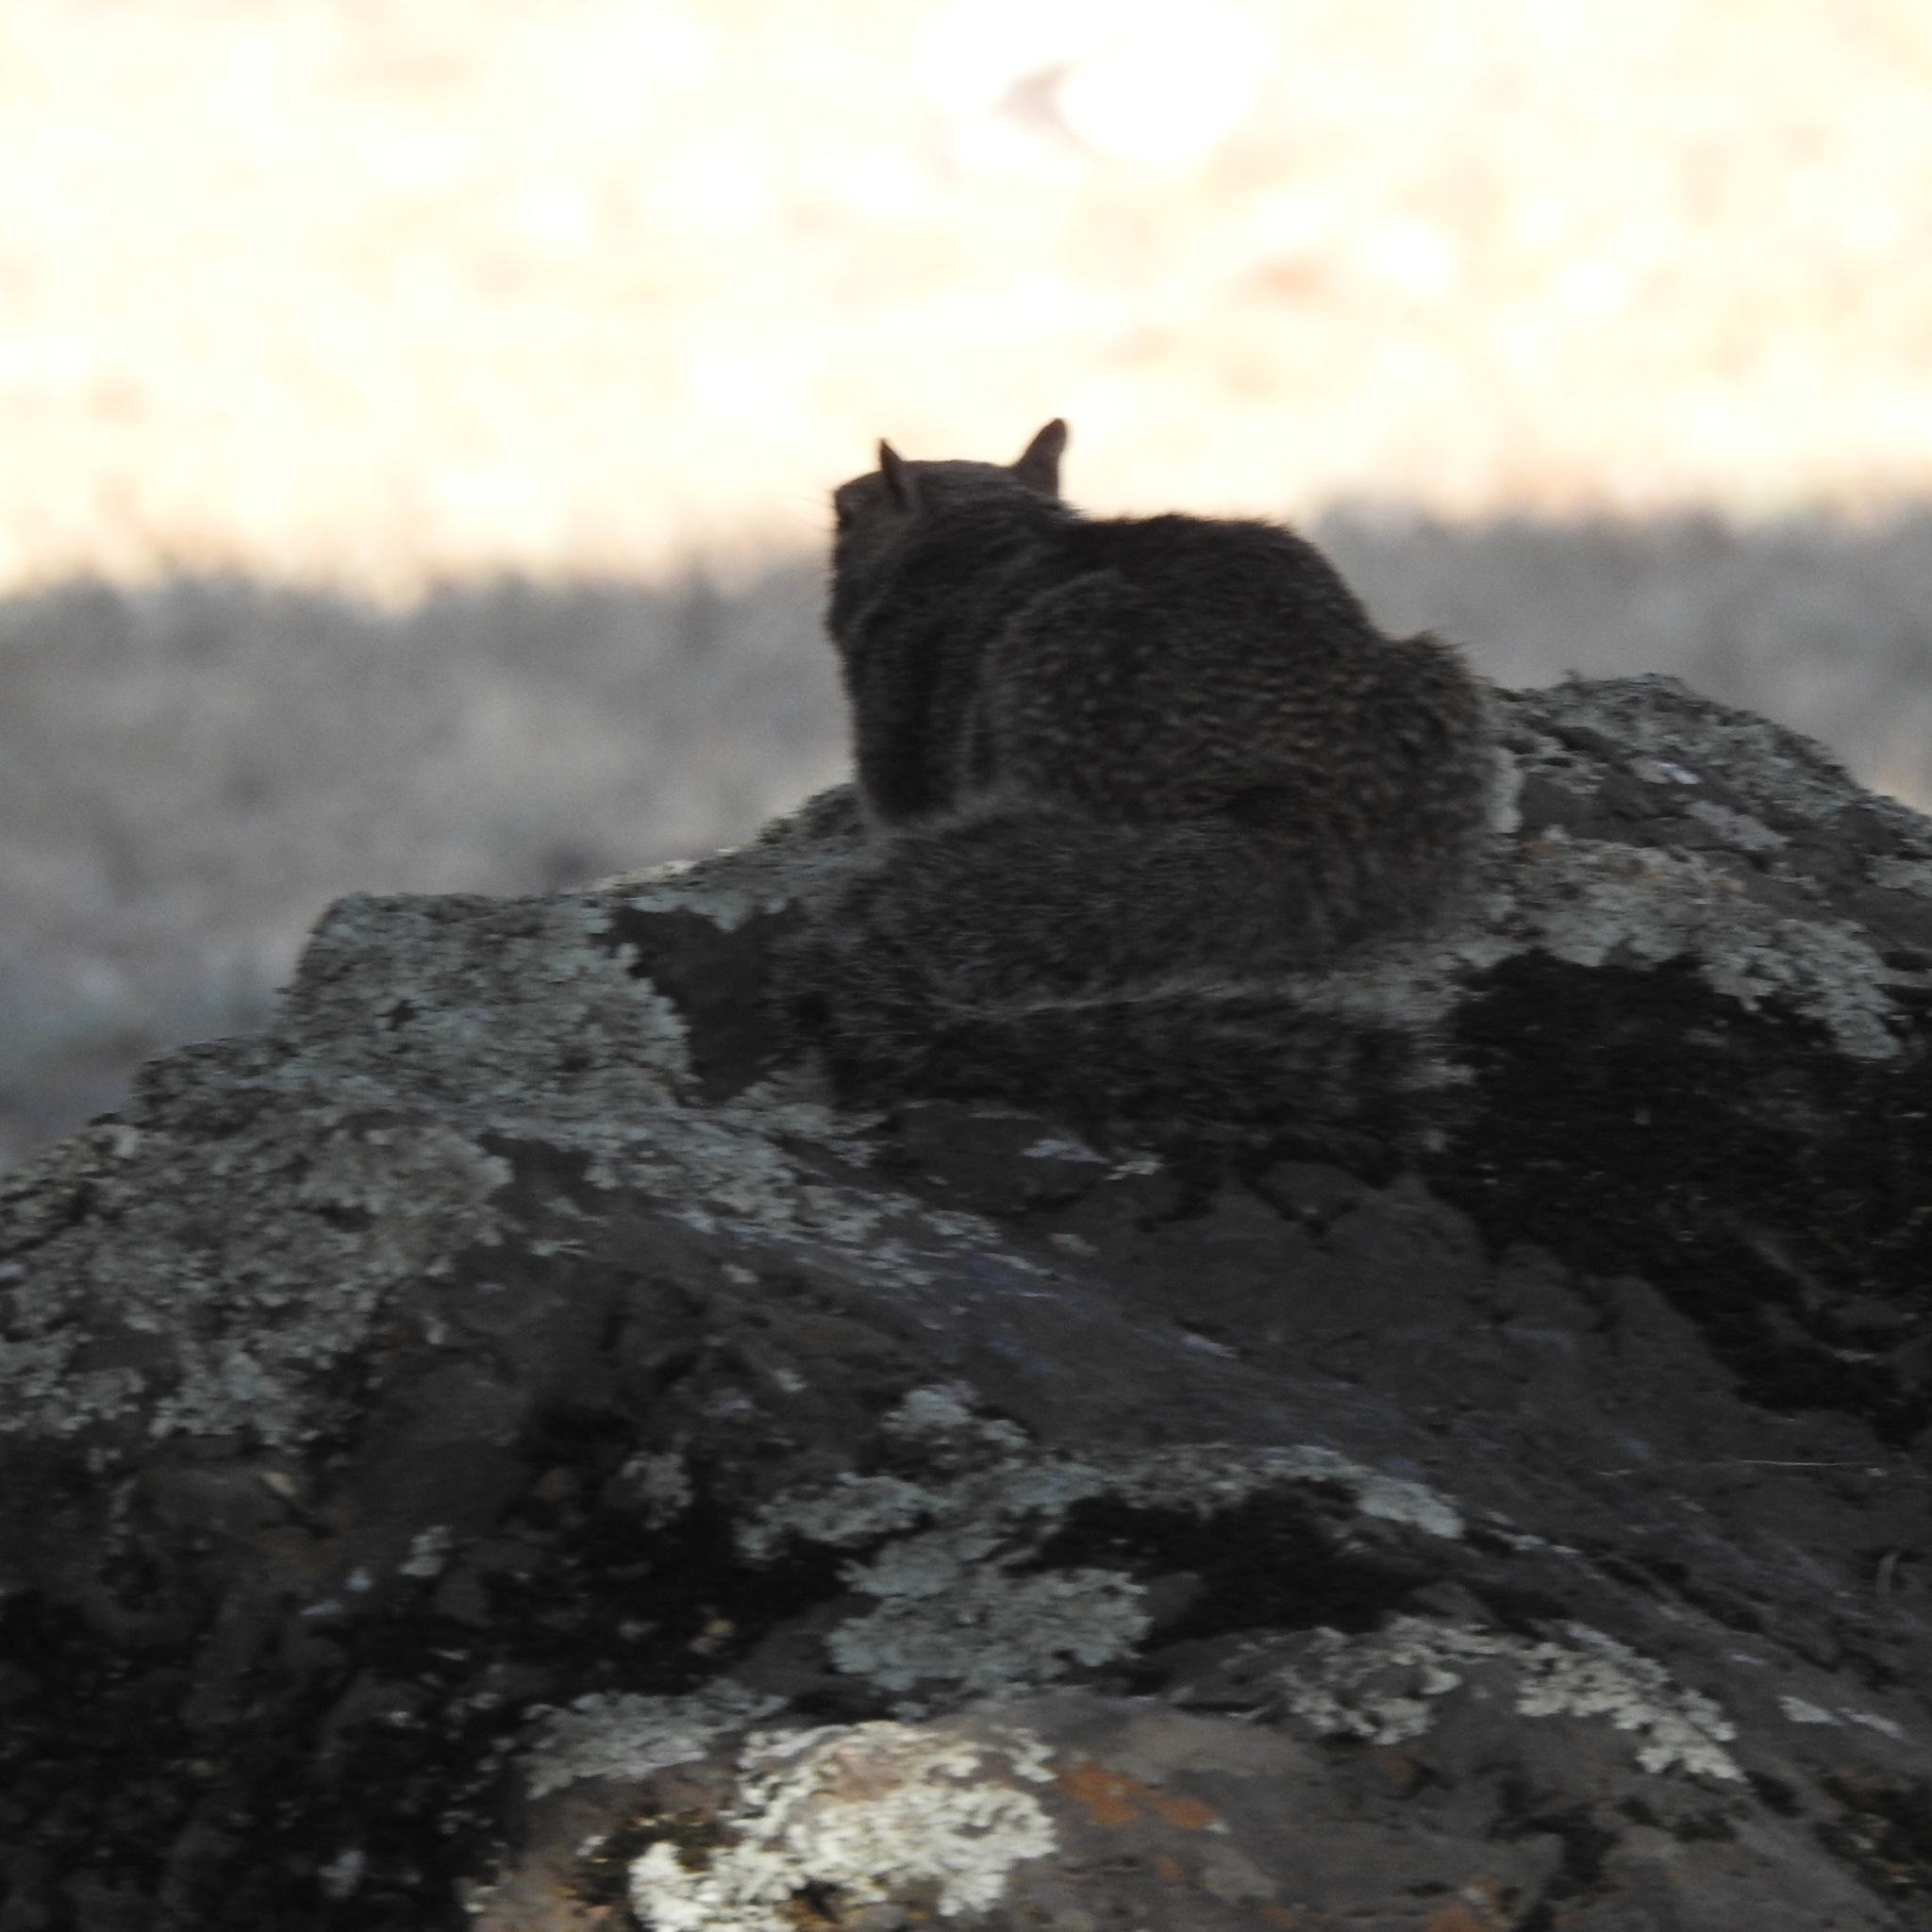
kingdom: Animalia
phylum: Chordata
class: Mammalia
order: Rodentia
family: Sciuridae
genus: Otospermophilus
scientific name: Otospermophilus beecheyi
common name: California ground squirrel
